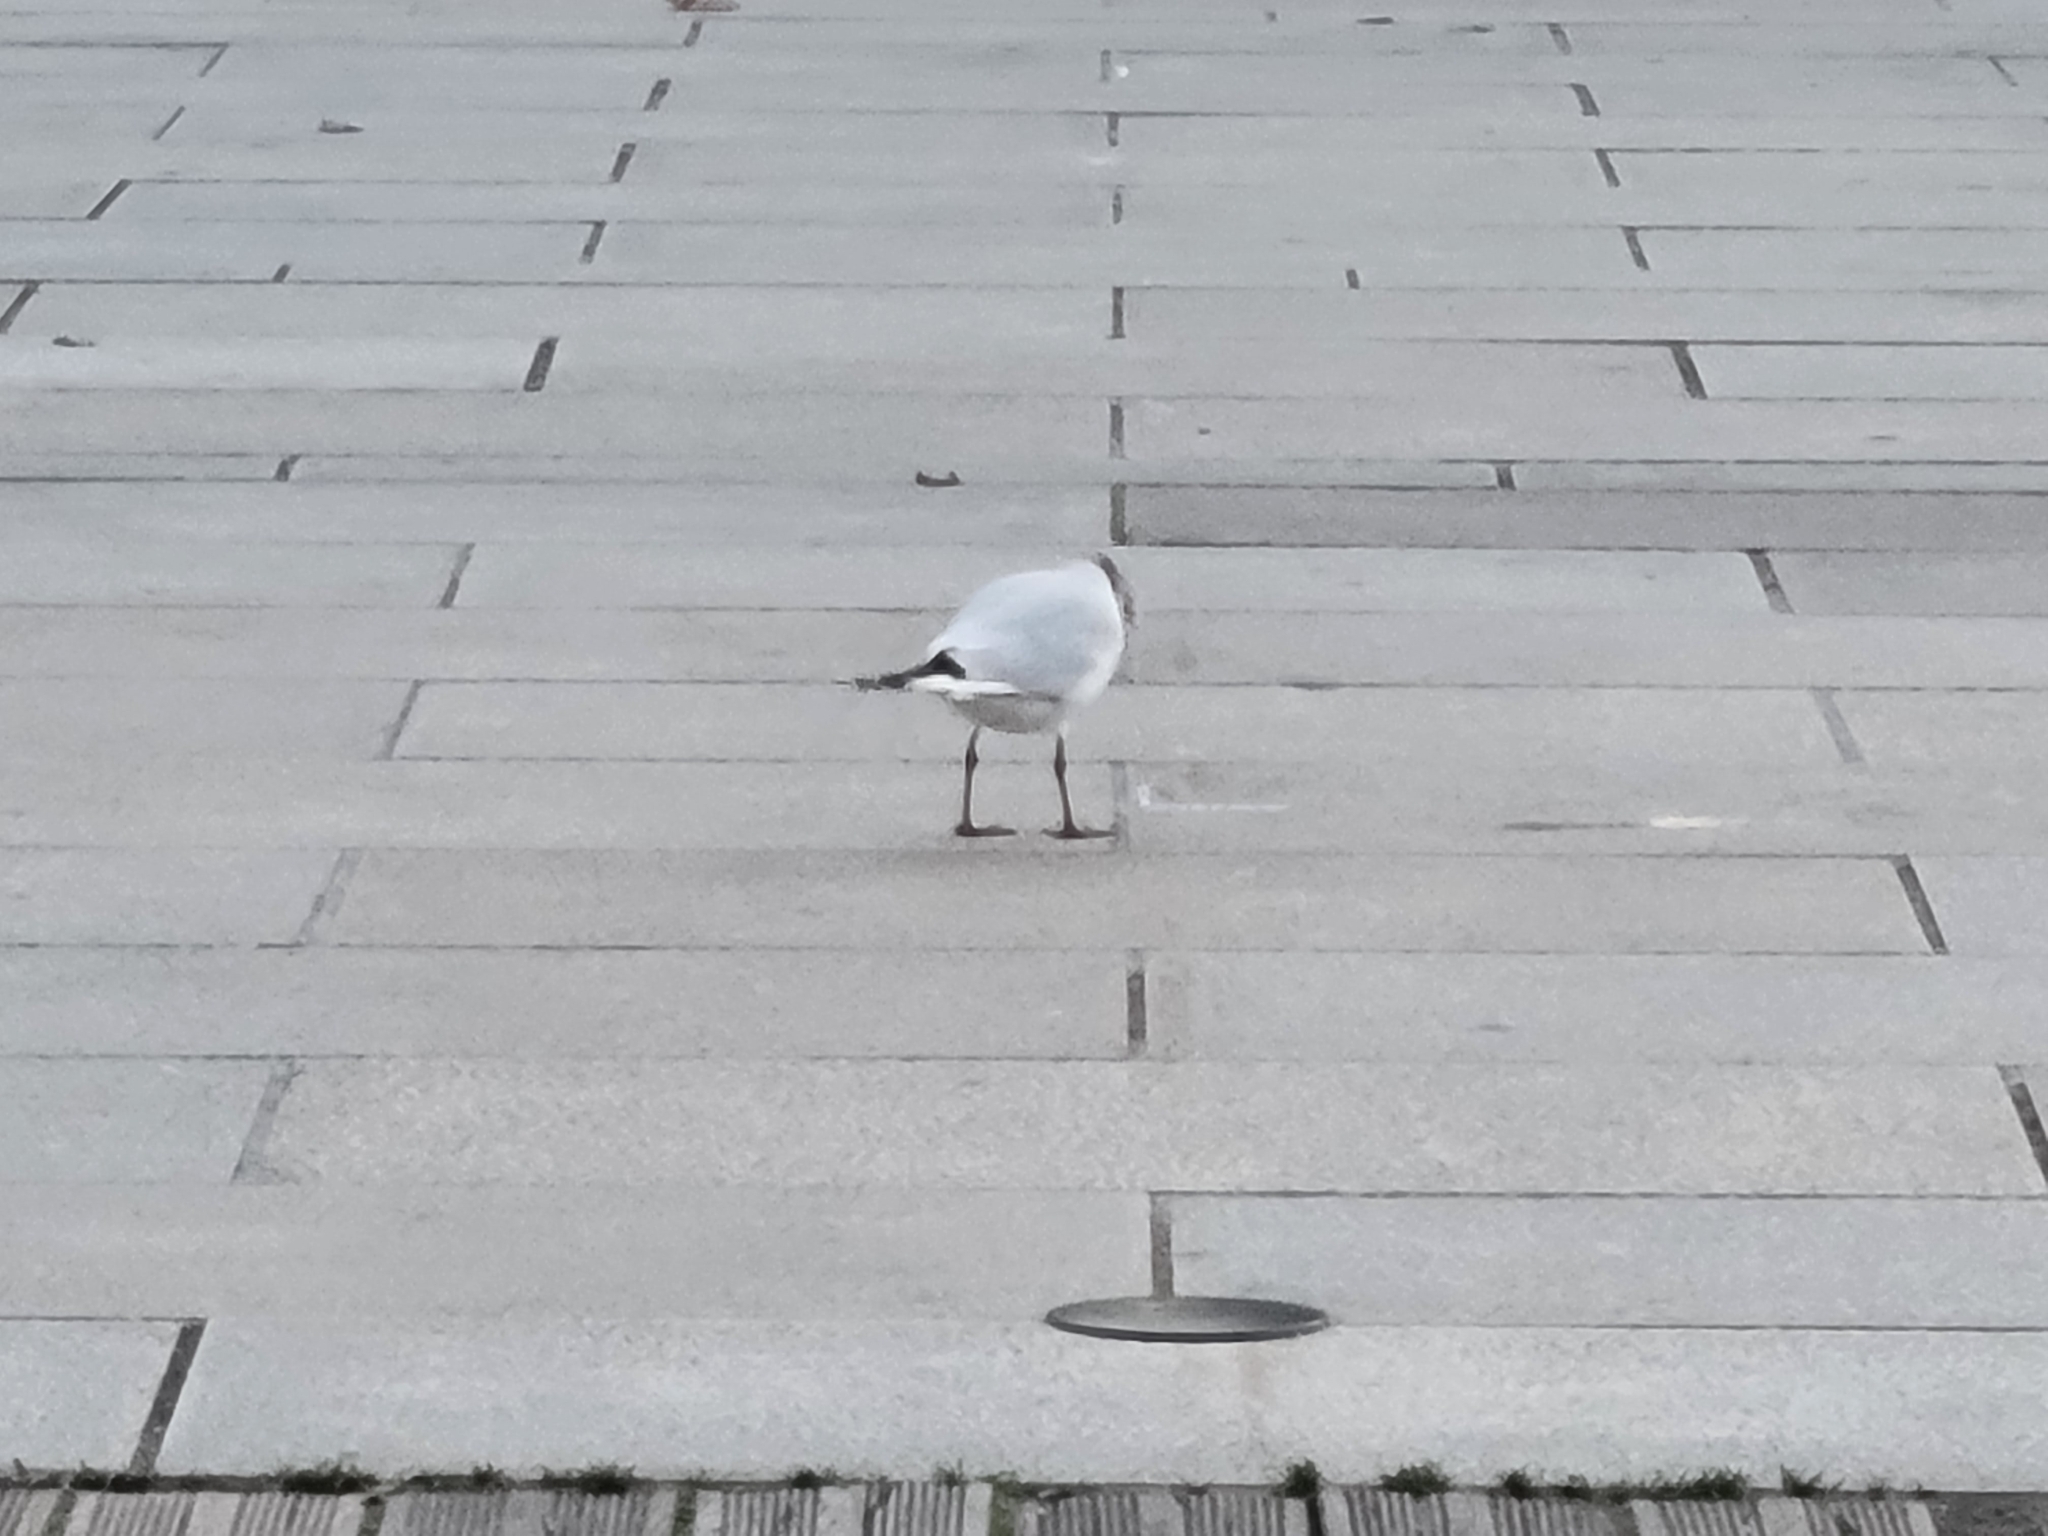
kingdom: Animalia
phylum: Chordata
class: Aves
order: Charadriiformes
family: Laridae
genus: Chroicocephalus
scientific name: Chroicocephalus ridibundus
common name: Black-headed gull
